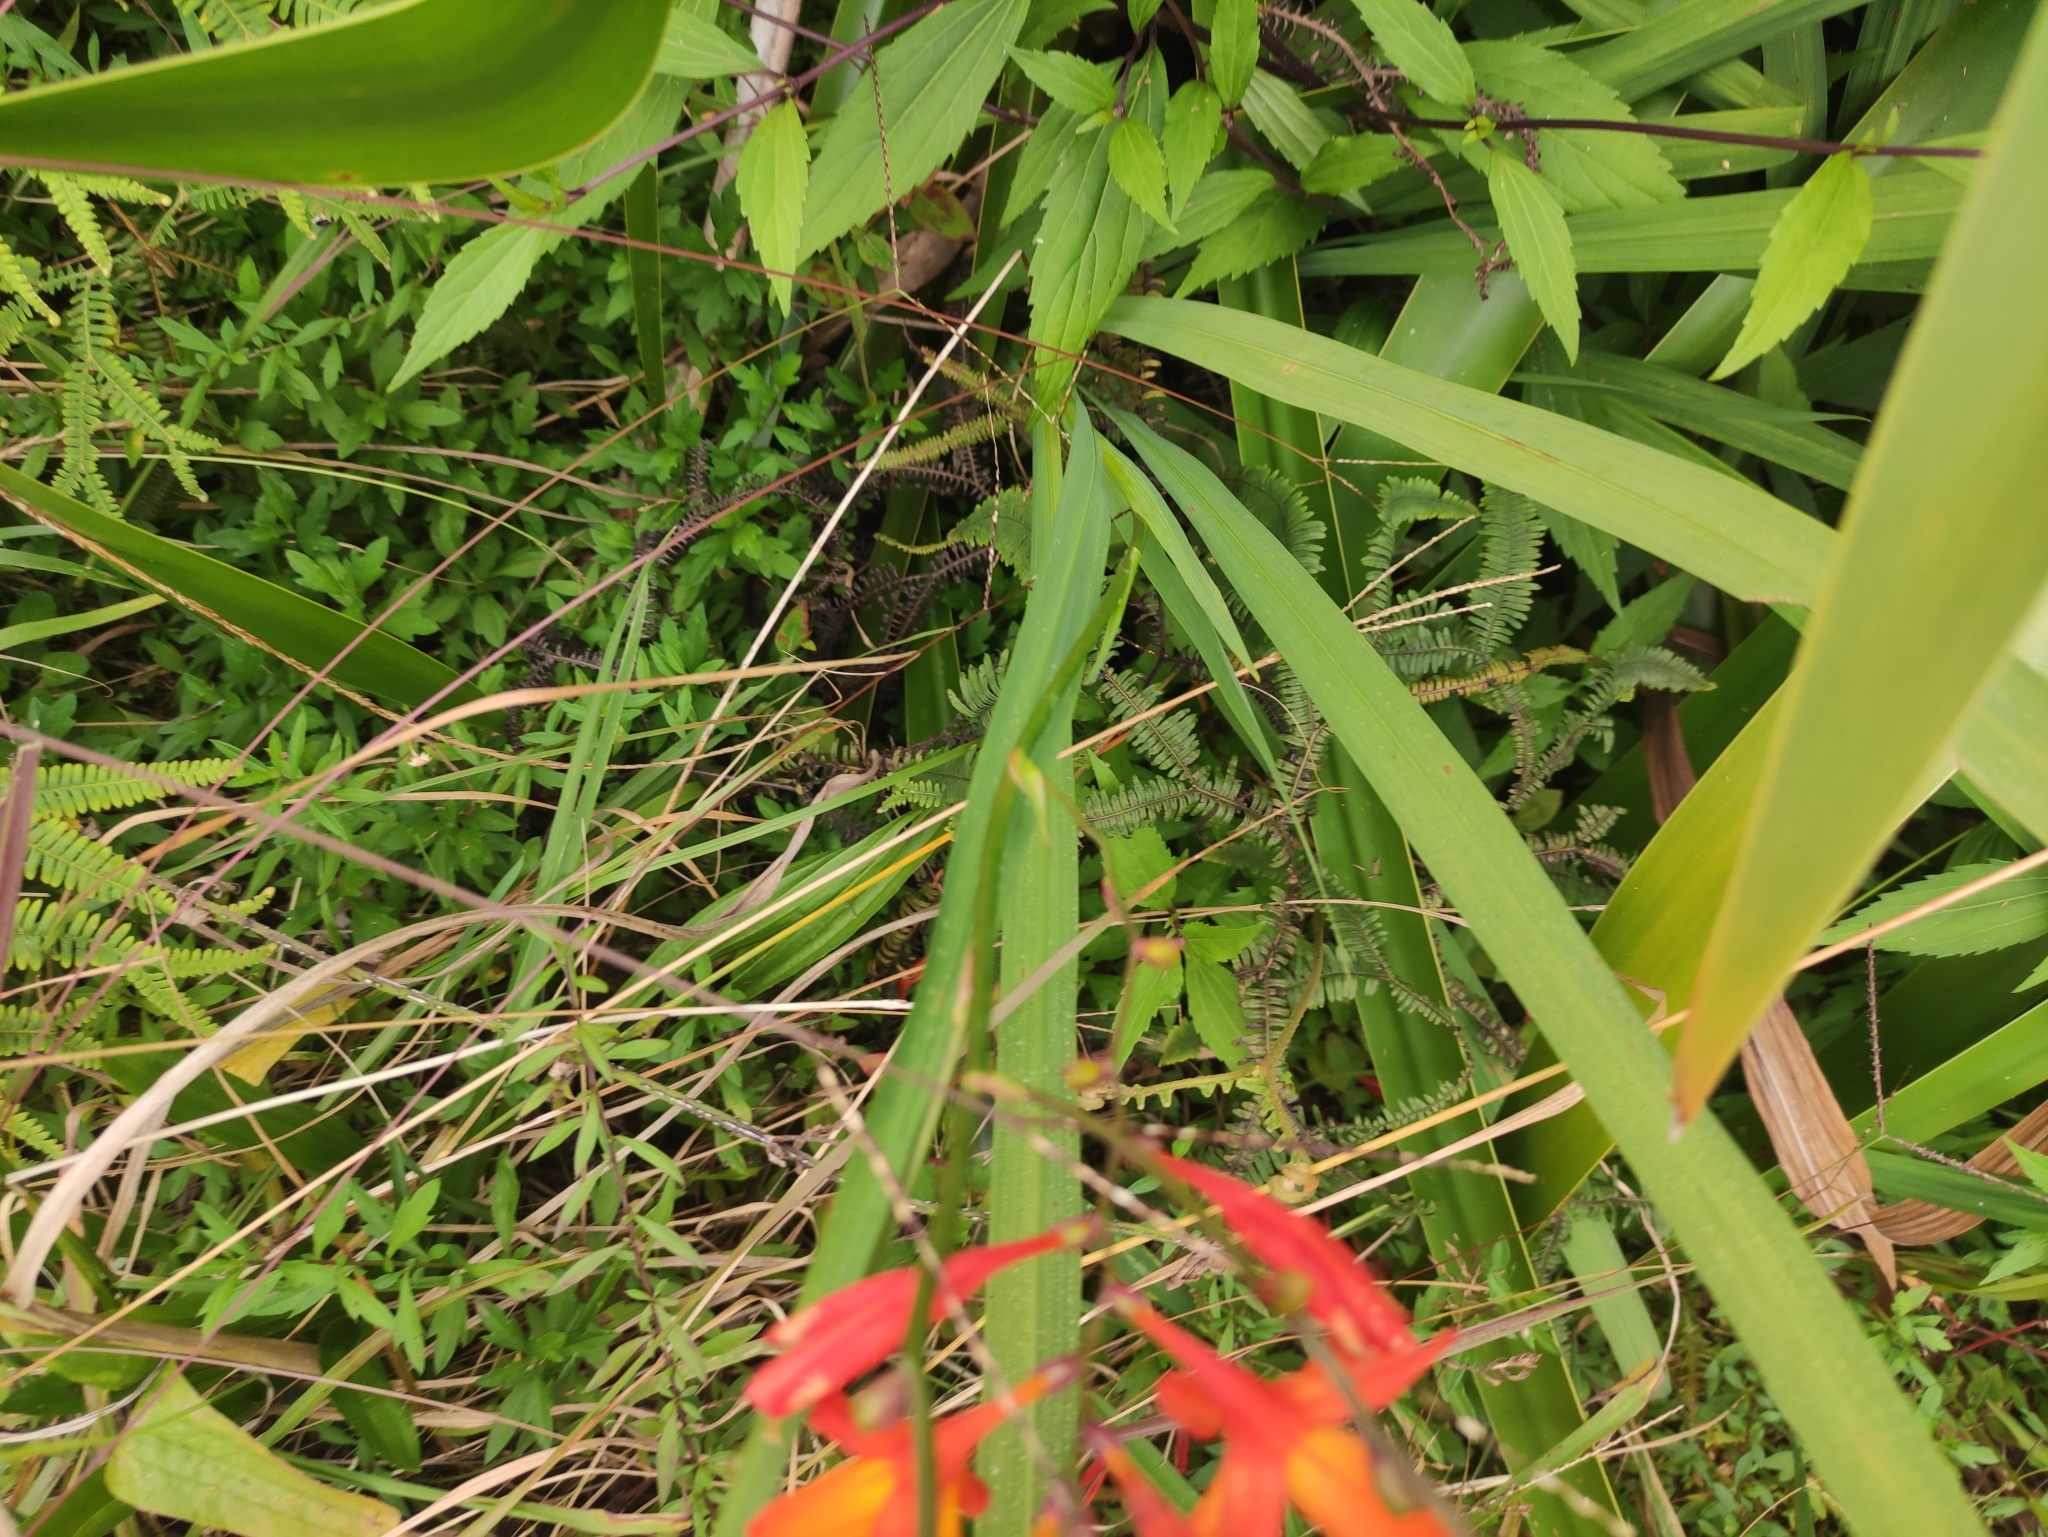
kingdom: Plantae
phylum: Tracheophyta
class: Liliopsida
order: Asparagales
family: Iridaceae
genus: Crocosmia
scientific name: Crocosmia crocosmiiflora
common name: Montbretia
